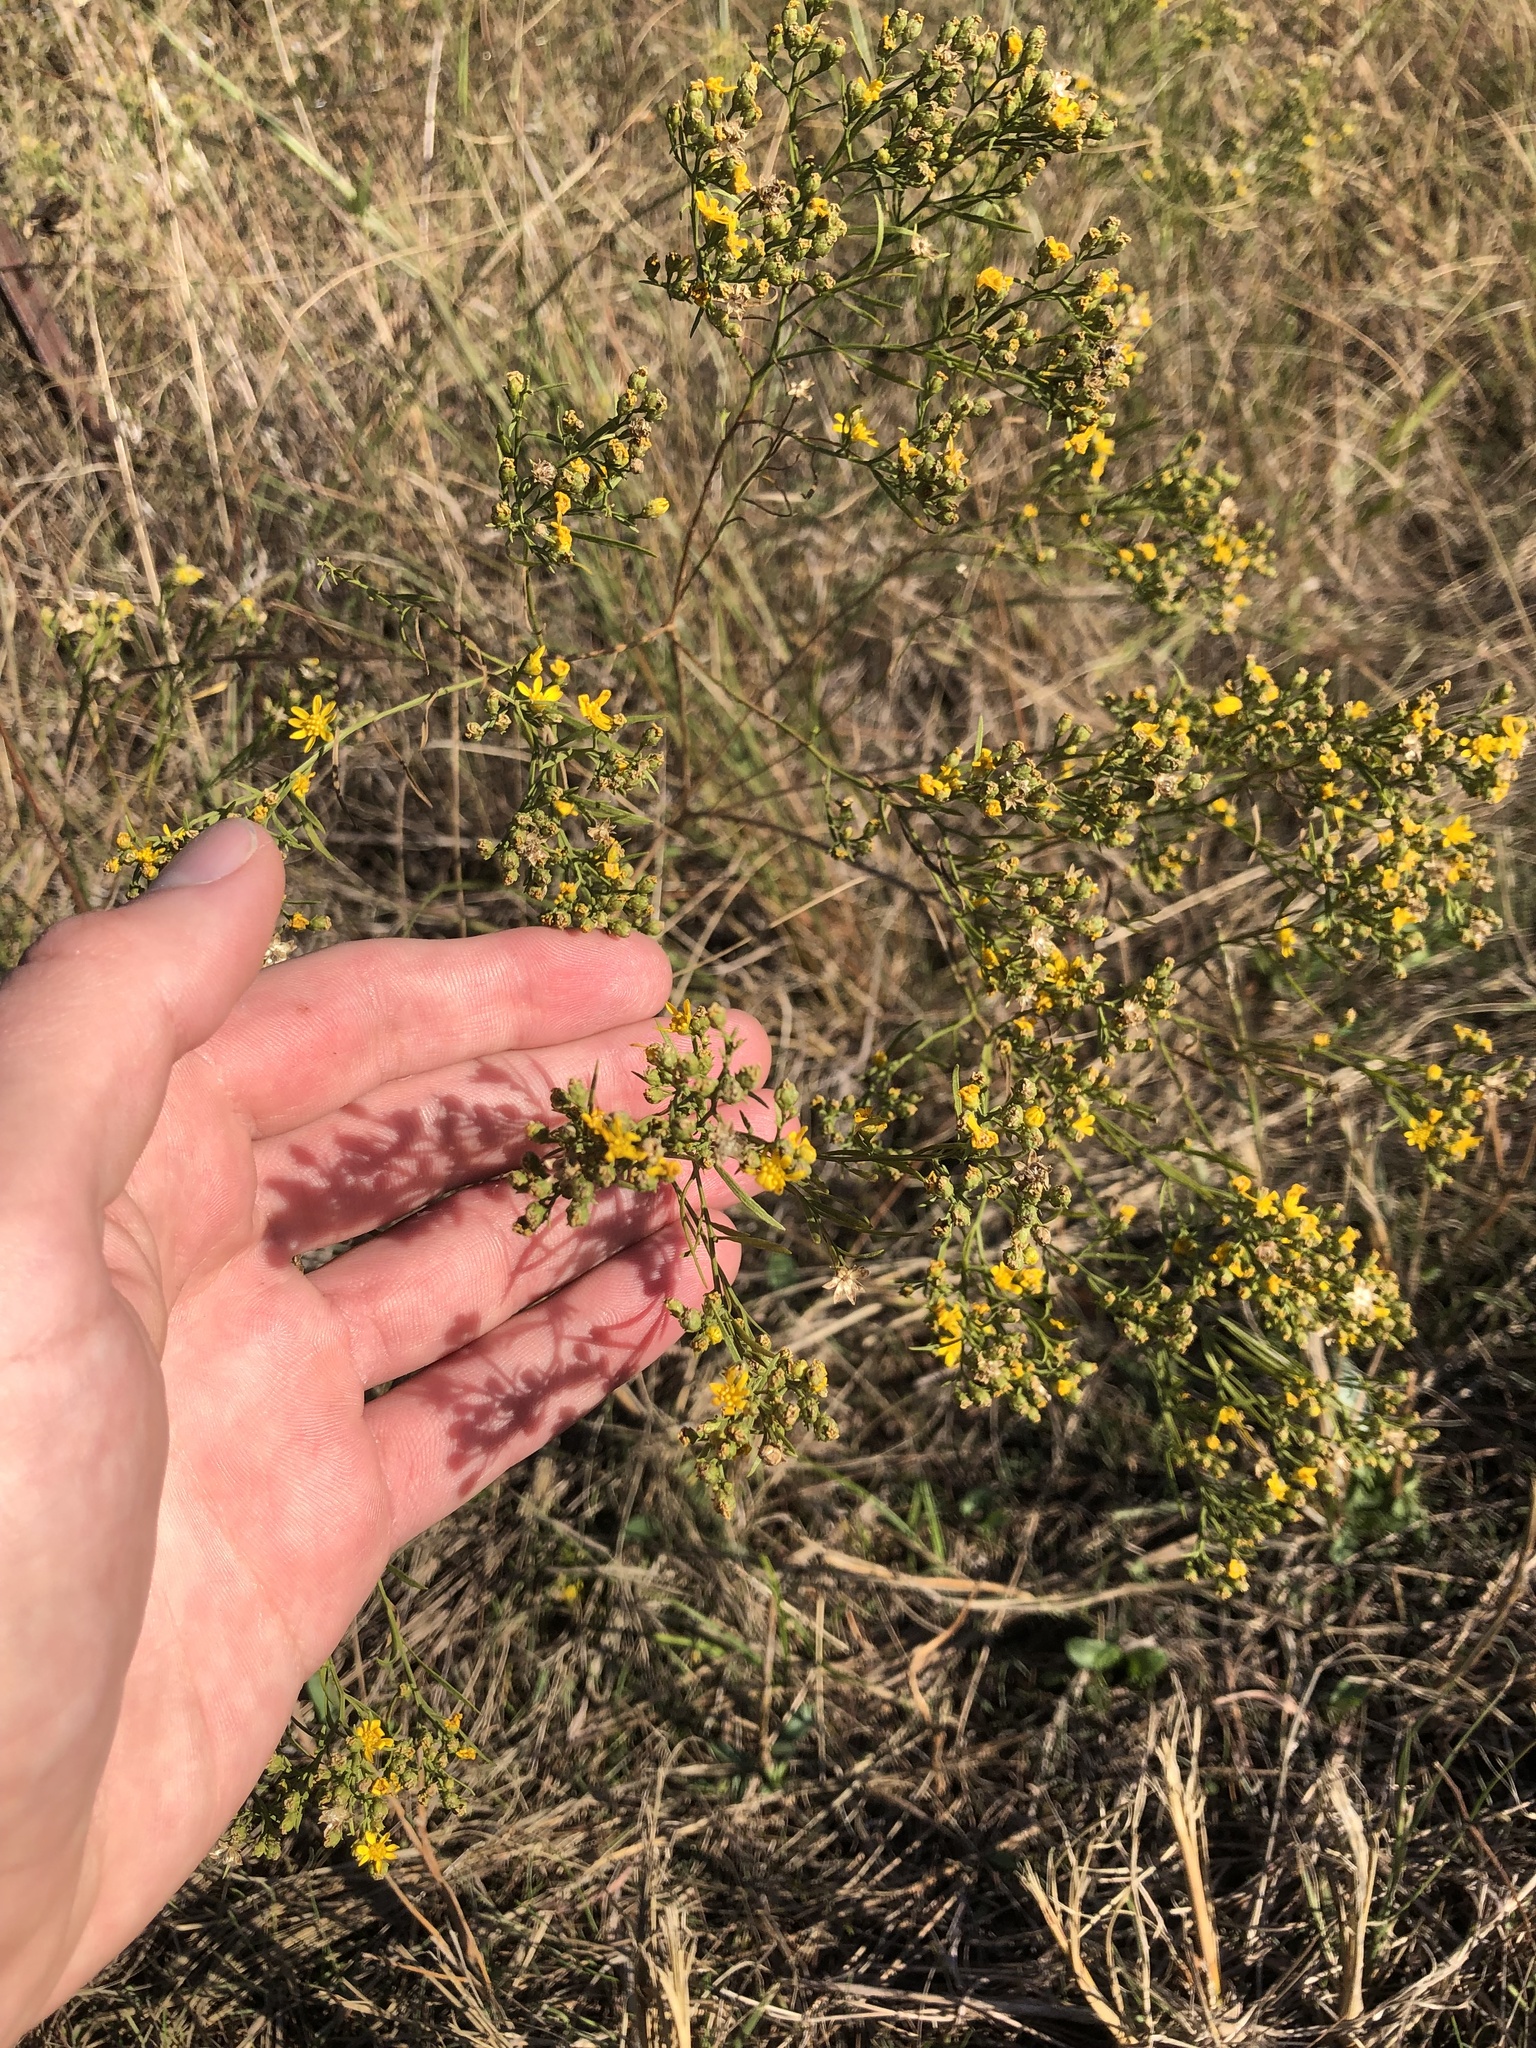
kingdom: Plantae
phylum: Tracheophyta
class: Magnoliopsida
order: Asterales
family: Asteraceae
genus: Amphiachyris
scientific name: Amphiachyris dracunculoides
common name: Broomweed
